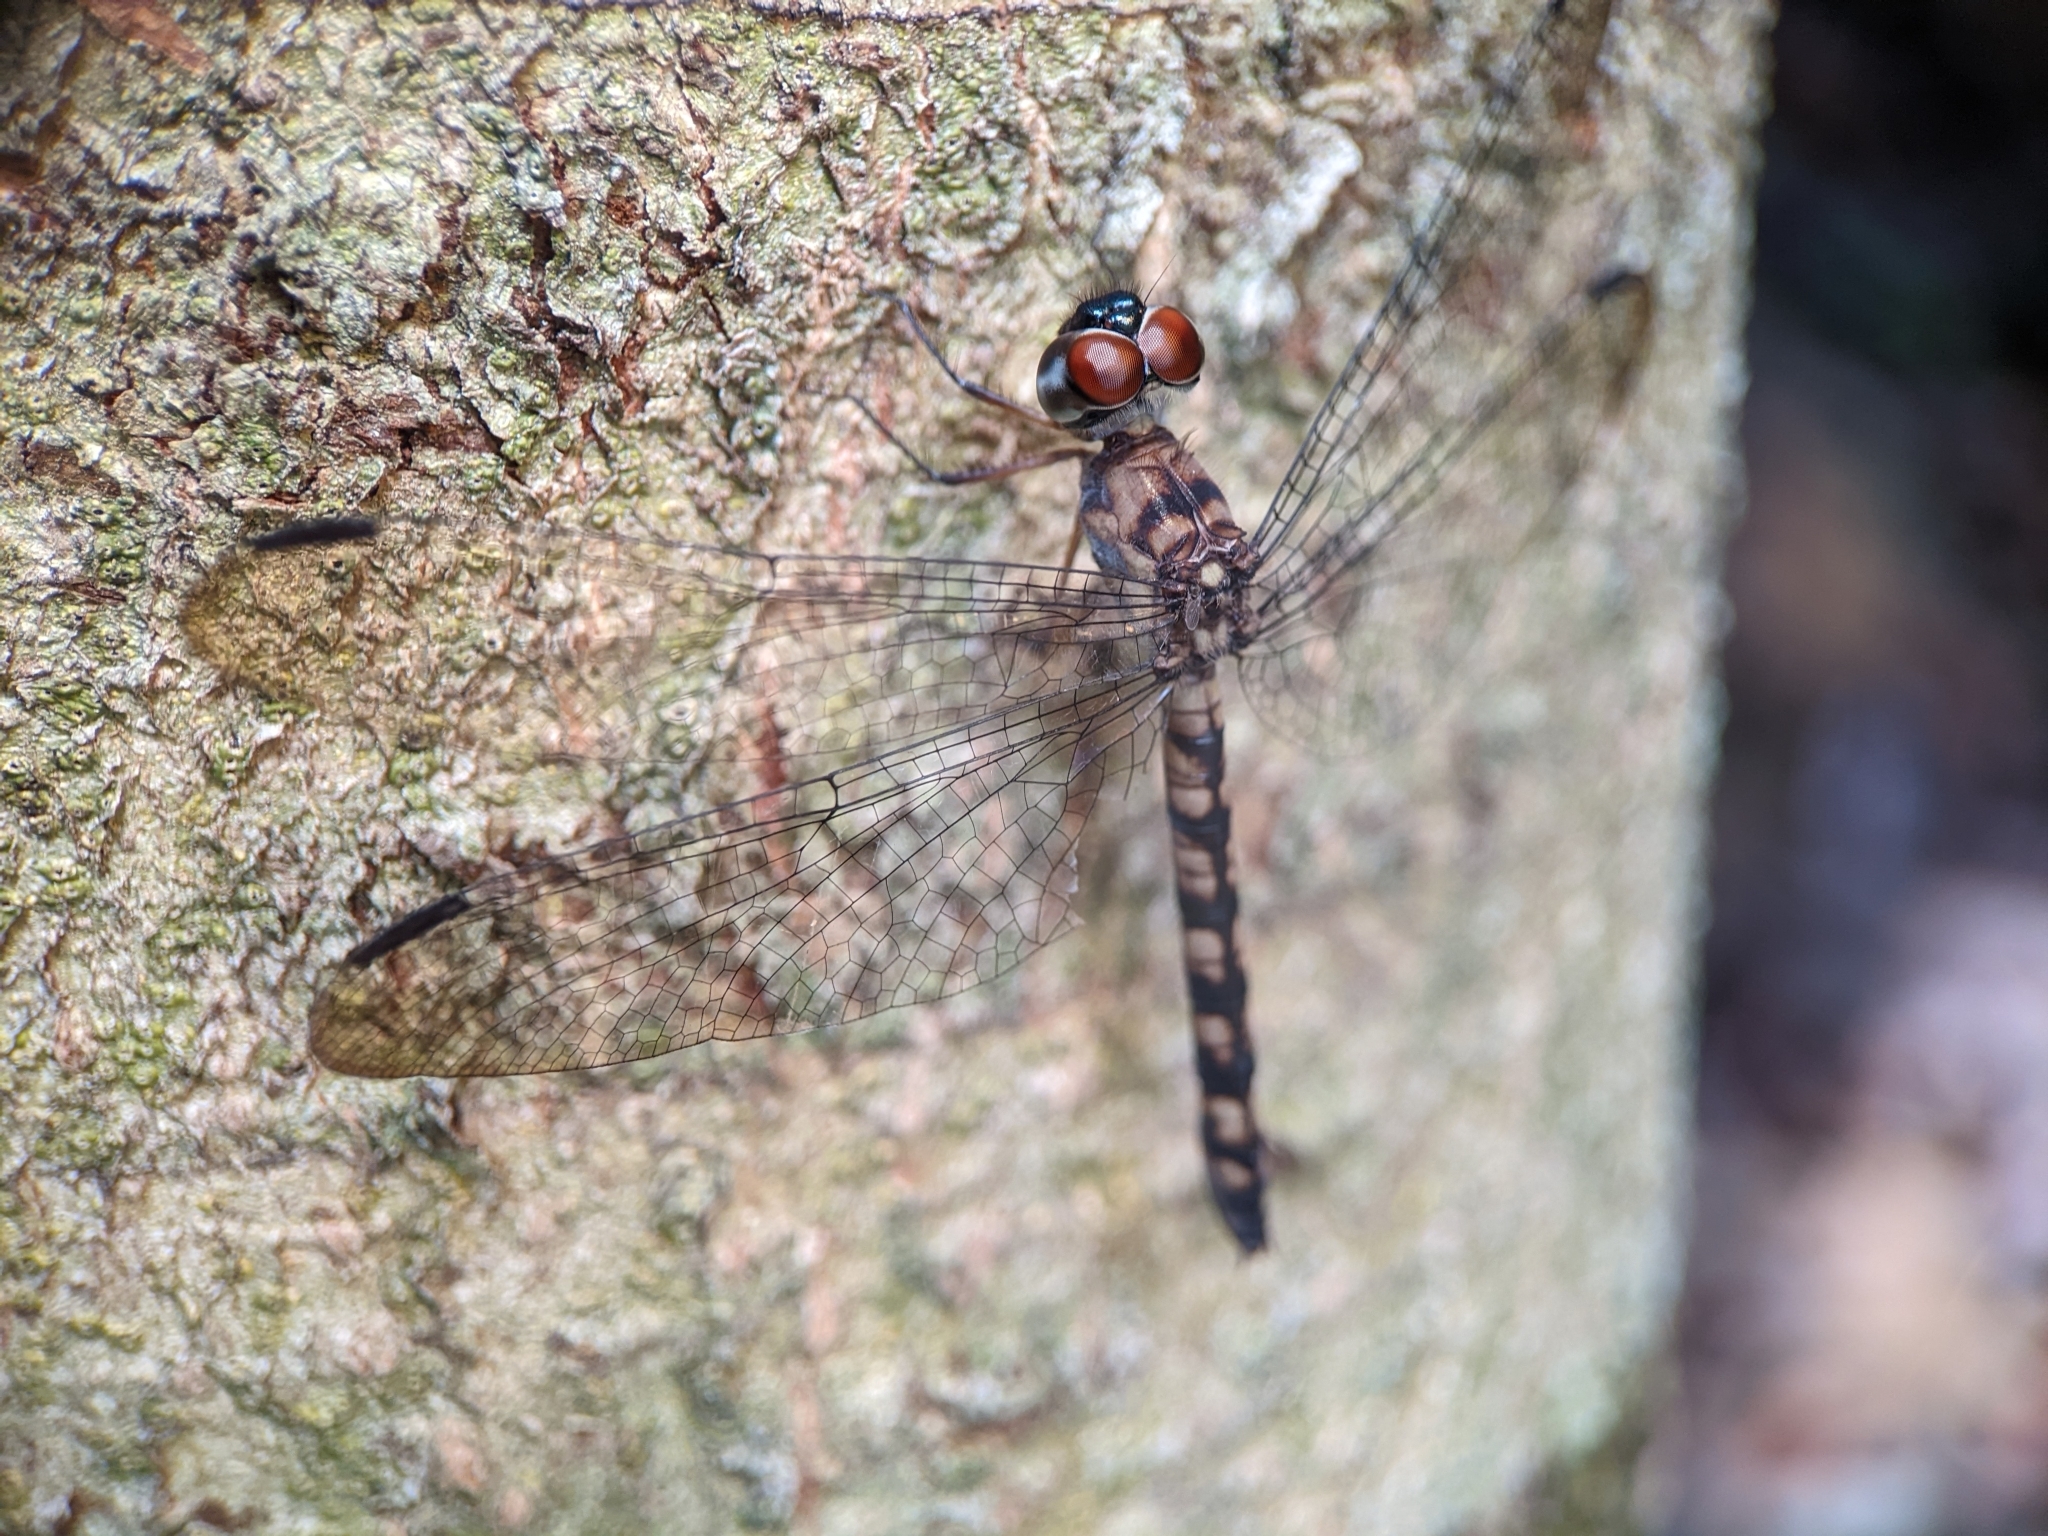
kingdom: Animalia
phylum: Arthropoda
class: Insecta
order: Odonata
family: Libellulidae
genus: Tyriobapta
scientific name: Tyriobapta torrida
